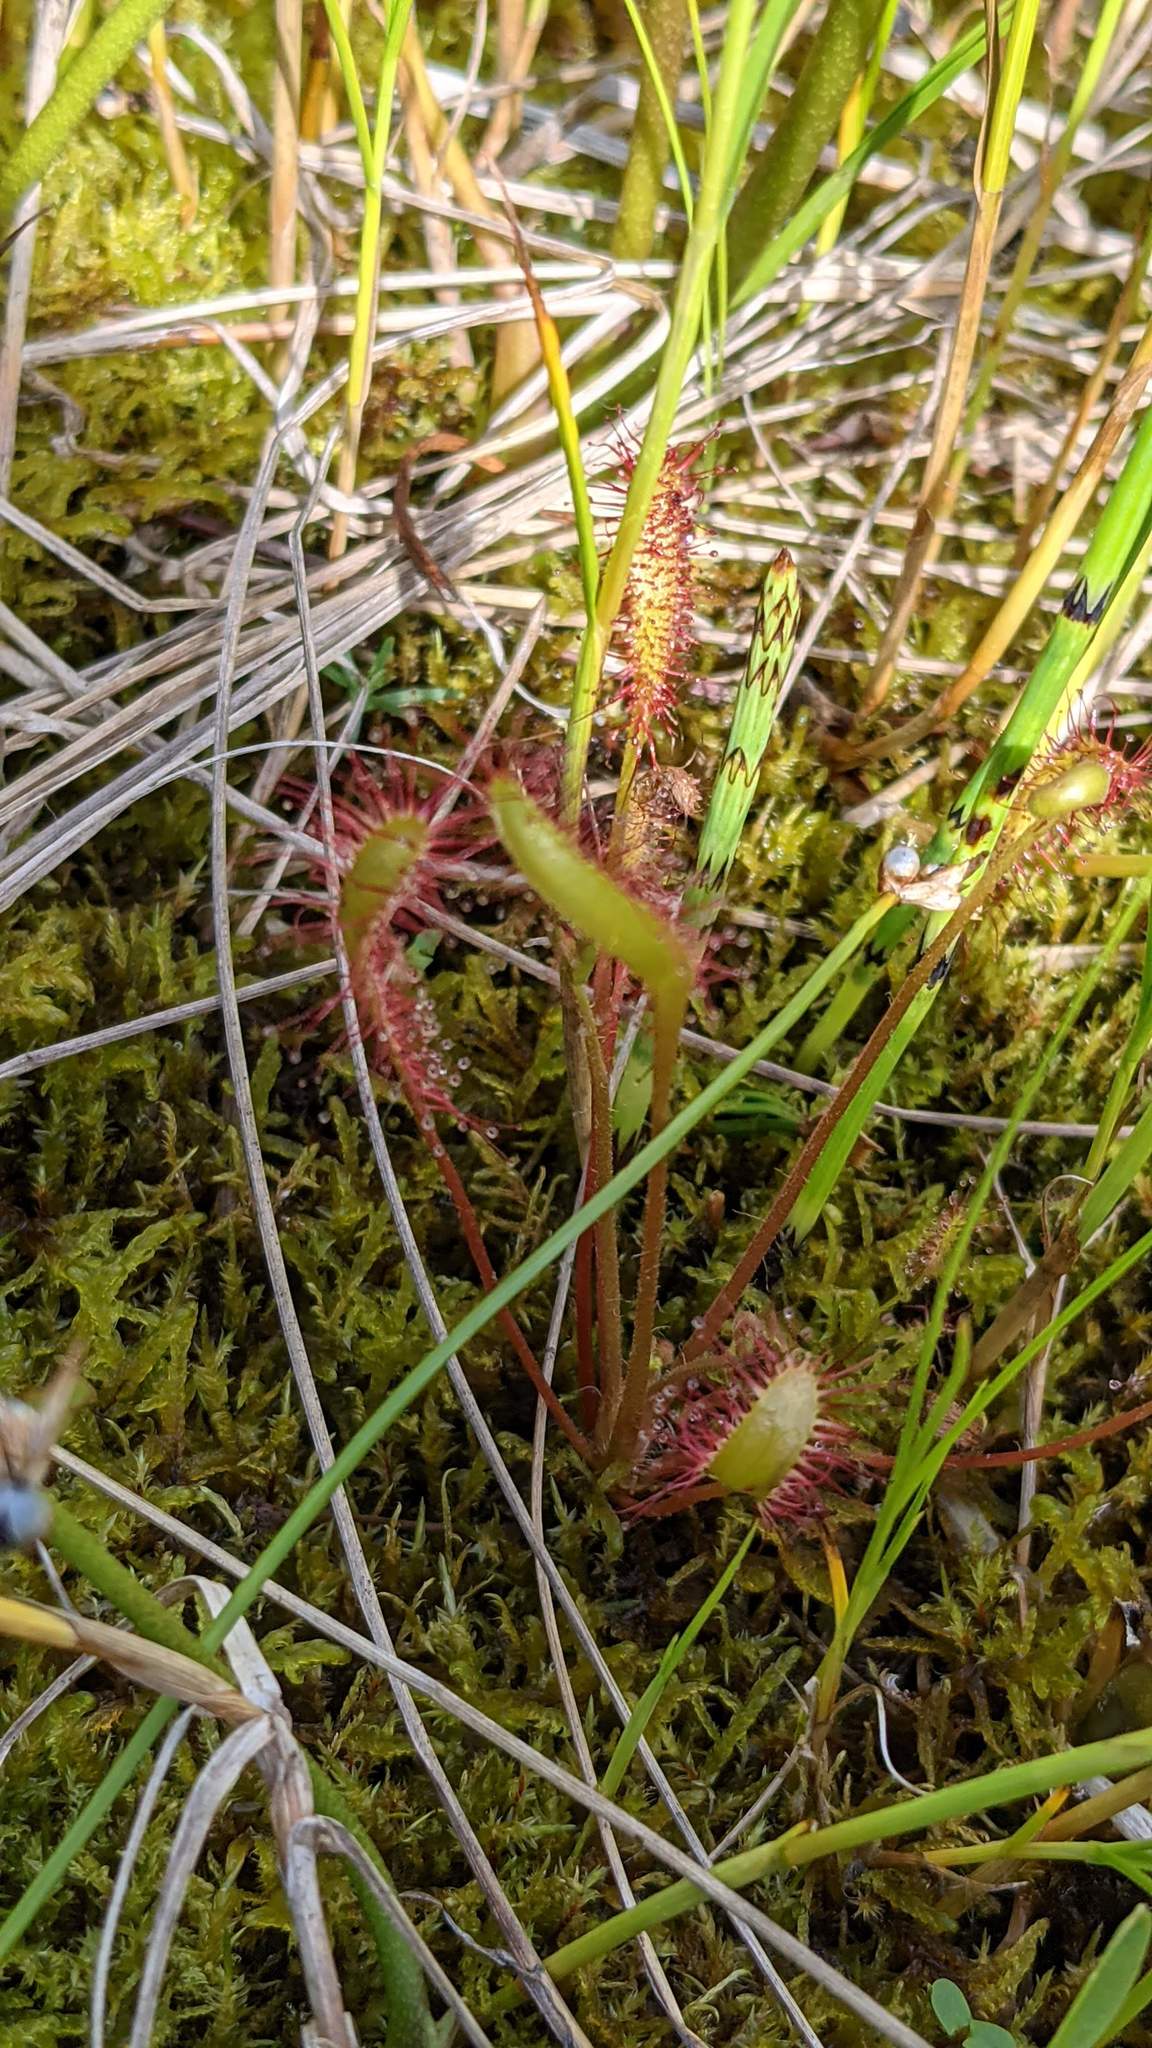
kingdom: Plantae
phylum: Tracheophyta
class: Magnoliopsida
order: Caryophyllales
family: Droseraceae
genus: Drosera
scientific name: Drosera anglica
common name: Great sundew
